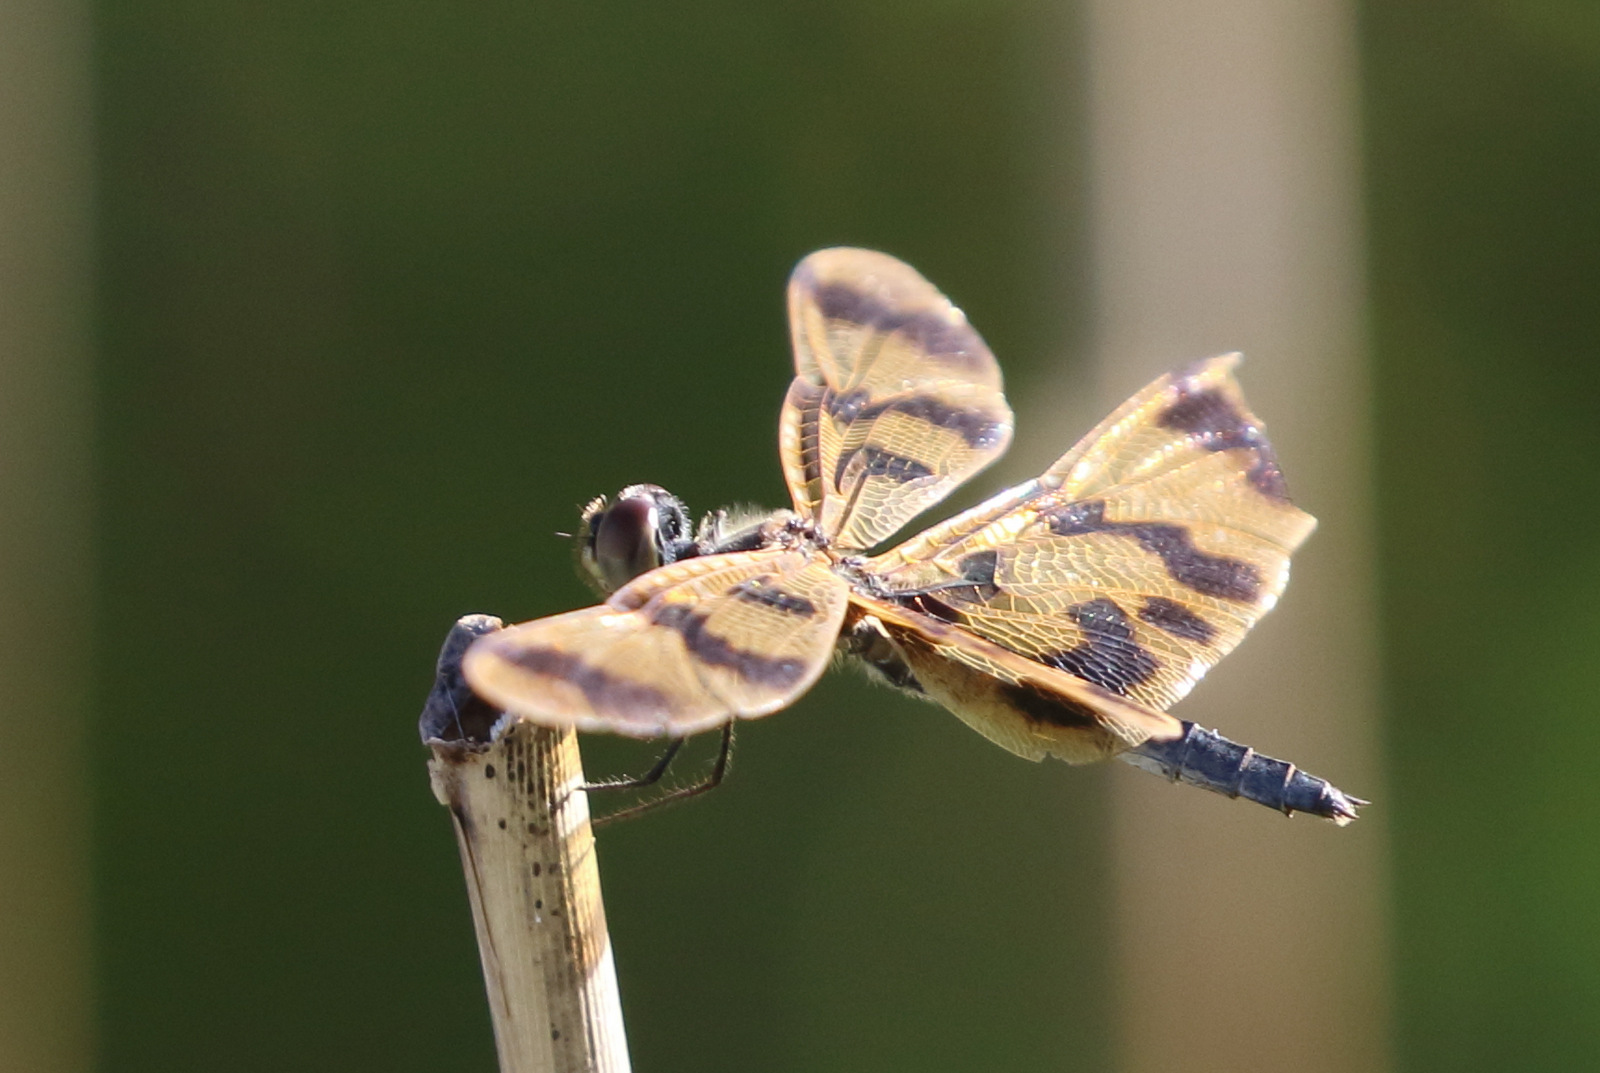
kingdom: Animalia
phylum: Arthropoda
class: Insecta
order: Odonata
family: Libellulidae
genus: Rhyothemis
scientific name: Rhyothemis graphiptera
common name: Graphic flutterer
